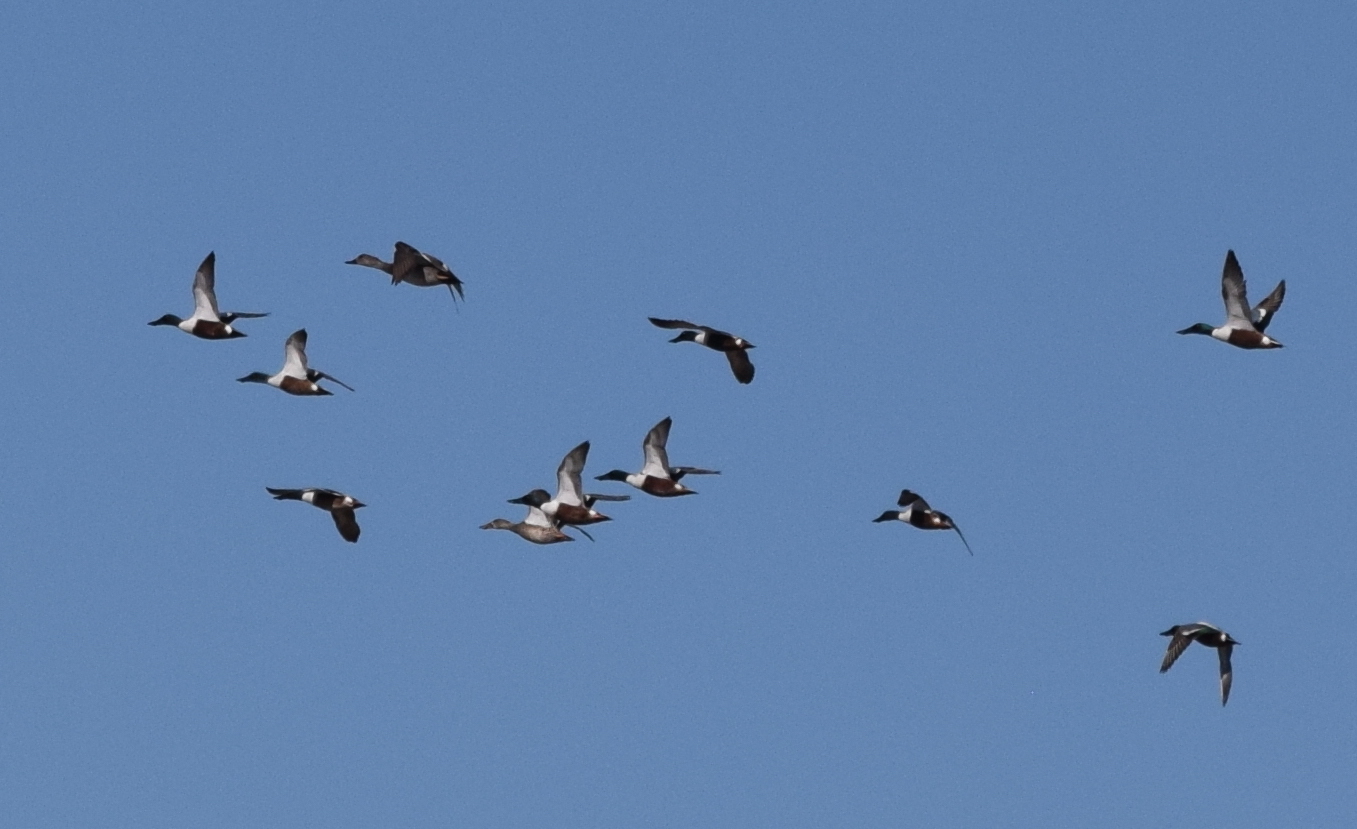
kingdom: Animalia
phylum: Chordata
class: Aves
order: Anseriformes
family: Anatidae
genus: Spatula
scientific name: Spatula clypeata
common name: Northern shoveler
